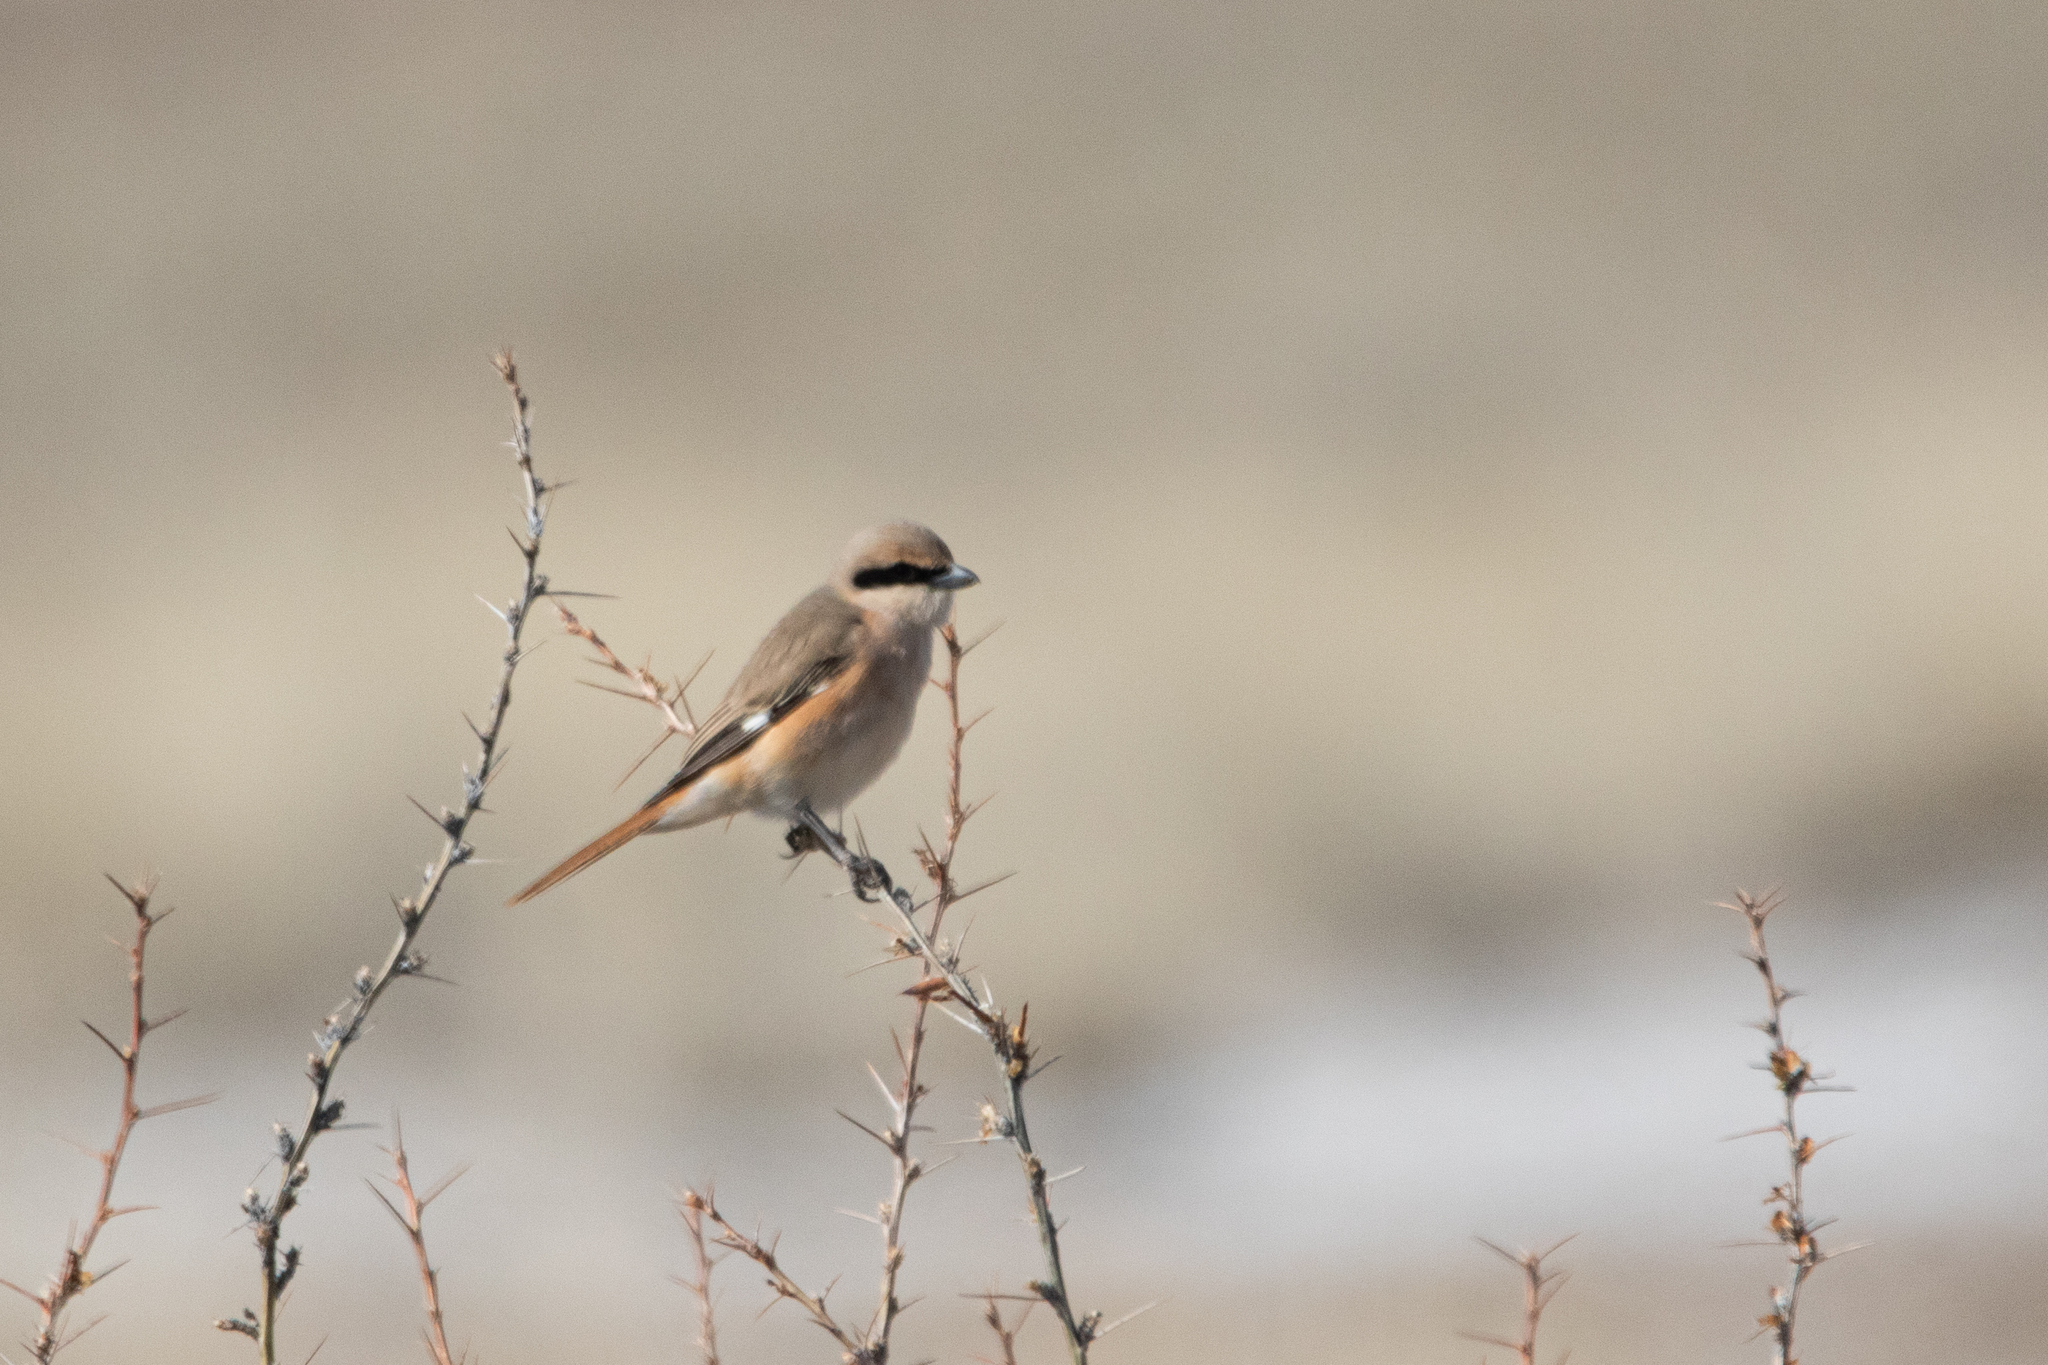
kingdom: Animalia
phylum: Chordata
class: Aves
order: Passeriformes
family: Laniidae
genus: Lanius
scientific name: Lanius isabellinus
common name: Isabelline shrike
